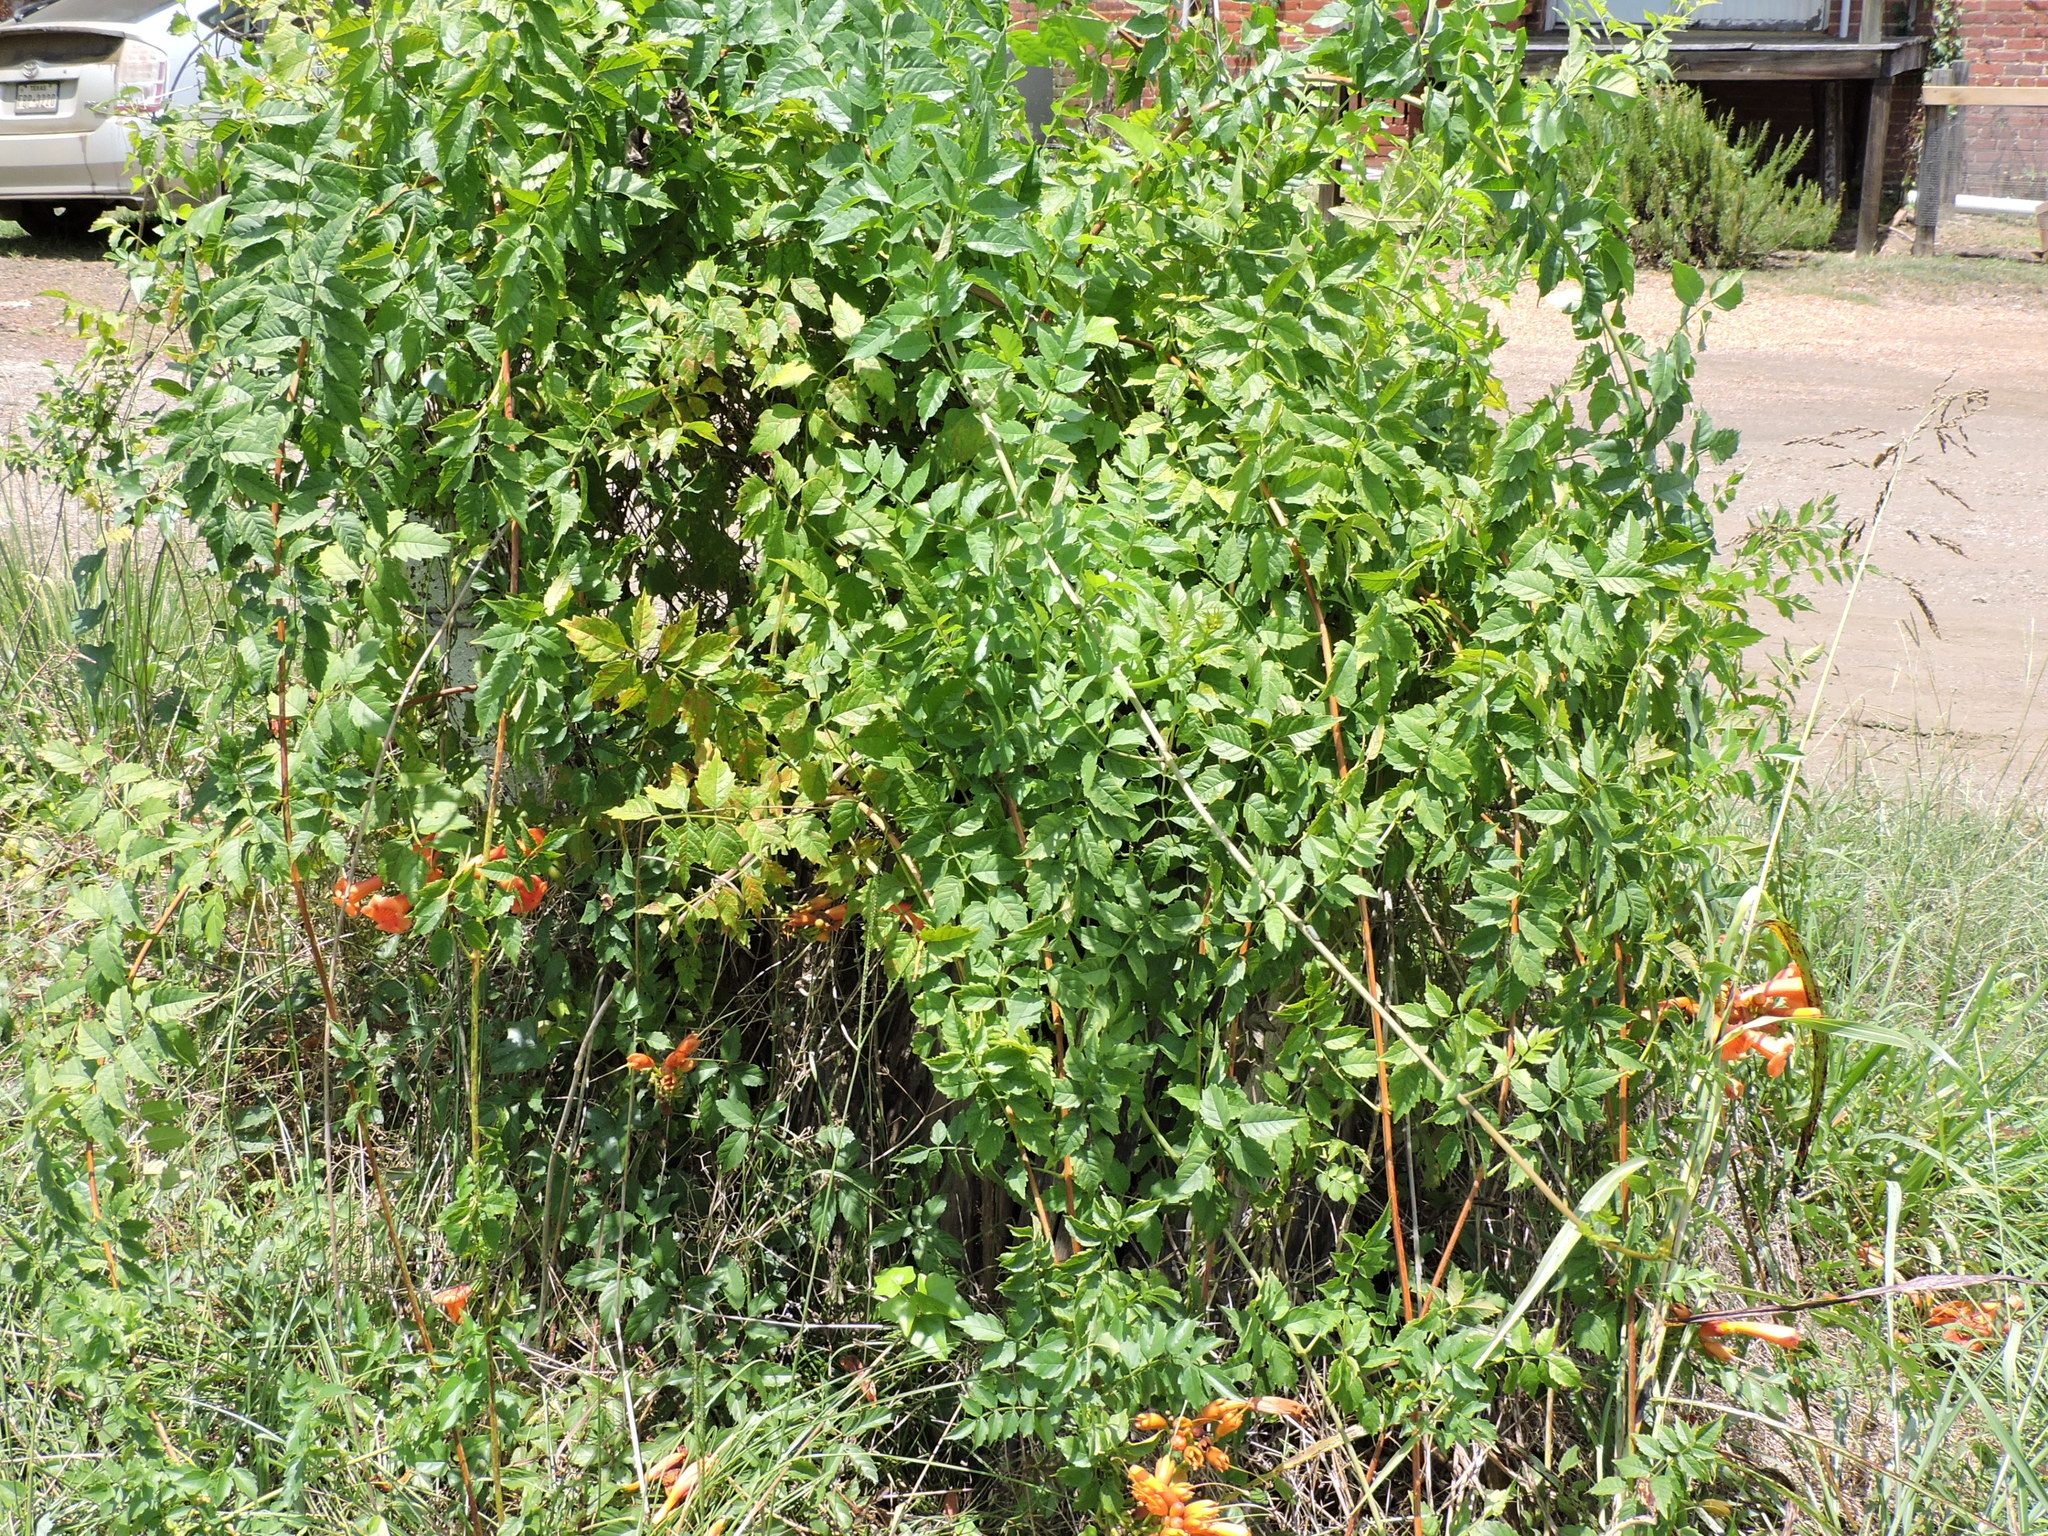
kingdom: Plantae
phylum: Tracheophyta
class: Magnoliopsida
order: Lamiales
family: Bignoniaceae
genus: Campsis
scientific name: Campsis radicans
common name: Trumpet-creeper
